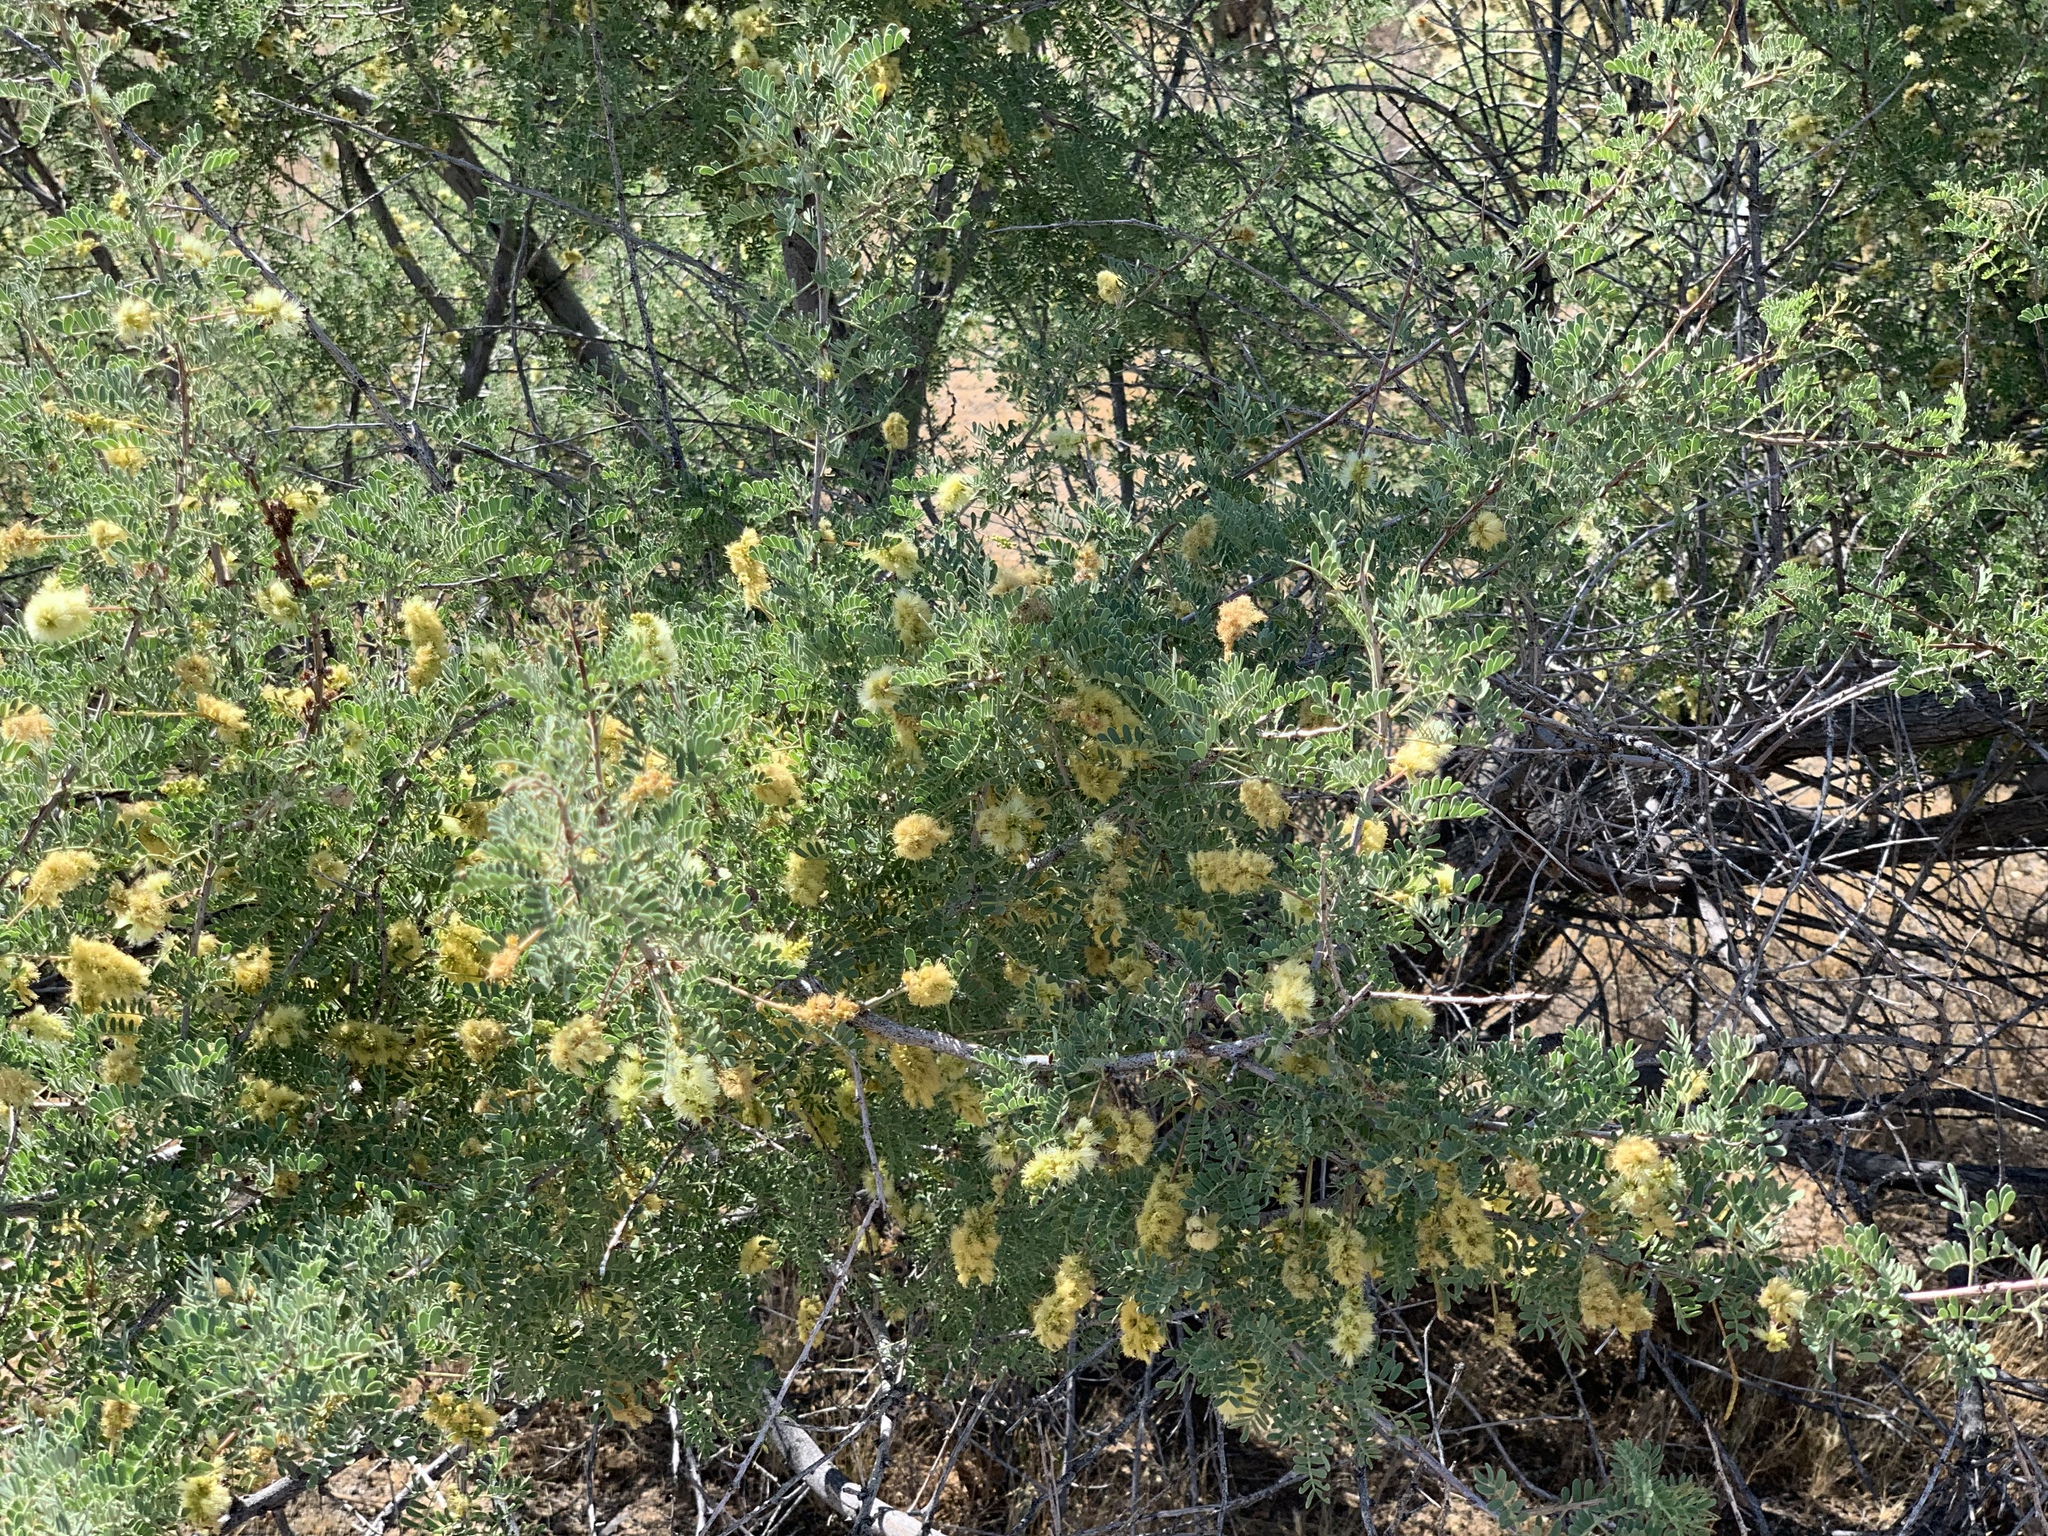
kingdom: Plantae
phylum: Tracheophyta
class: Magnoliopsida
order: Fabales
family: Fabaceae
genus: Senegalia
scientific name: Senegalia greggii
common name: Texas-mimosa
